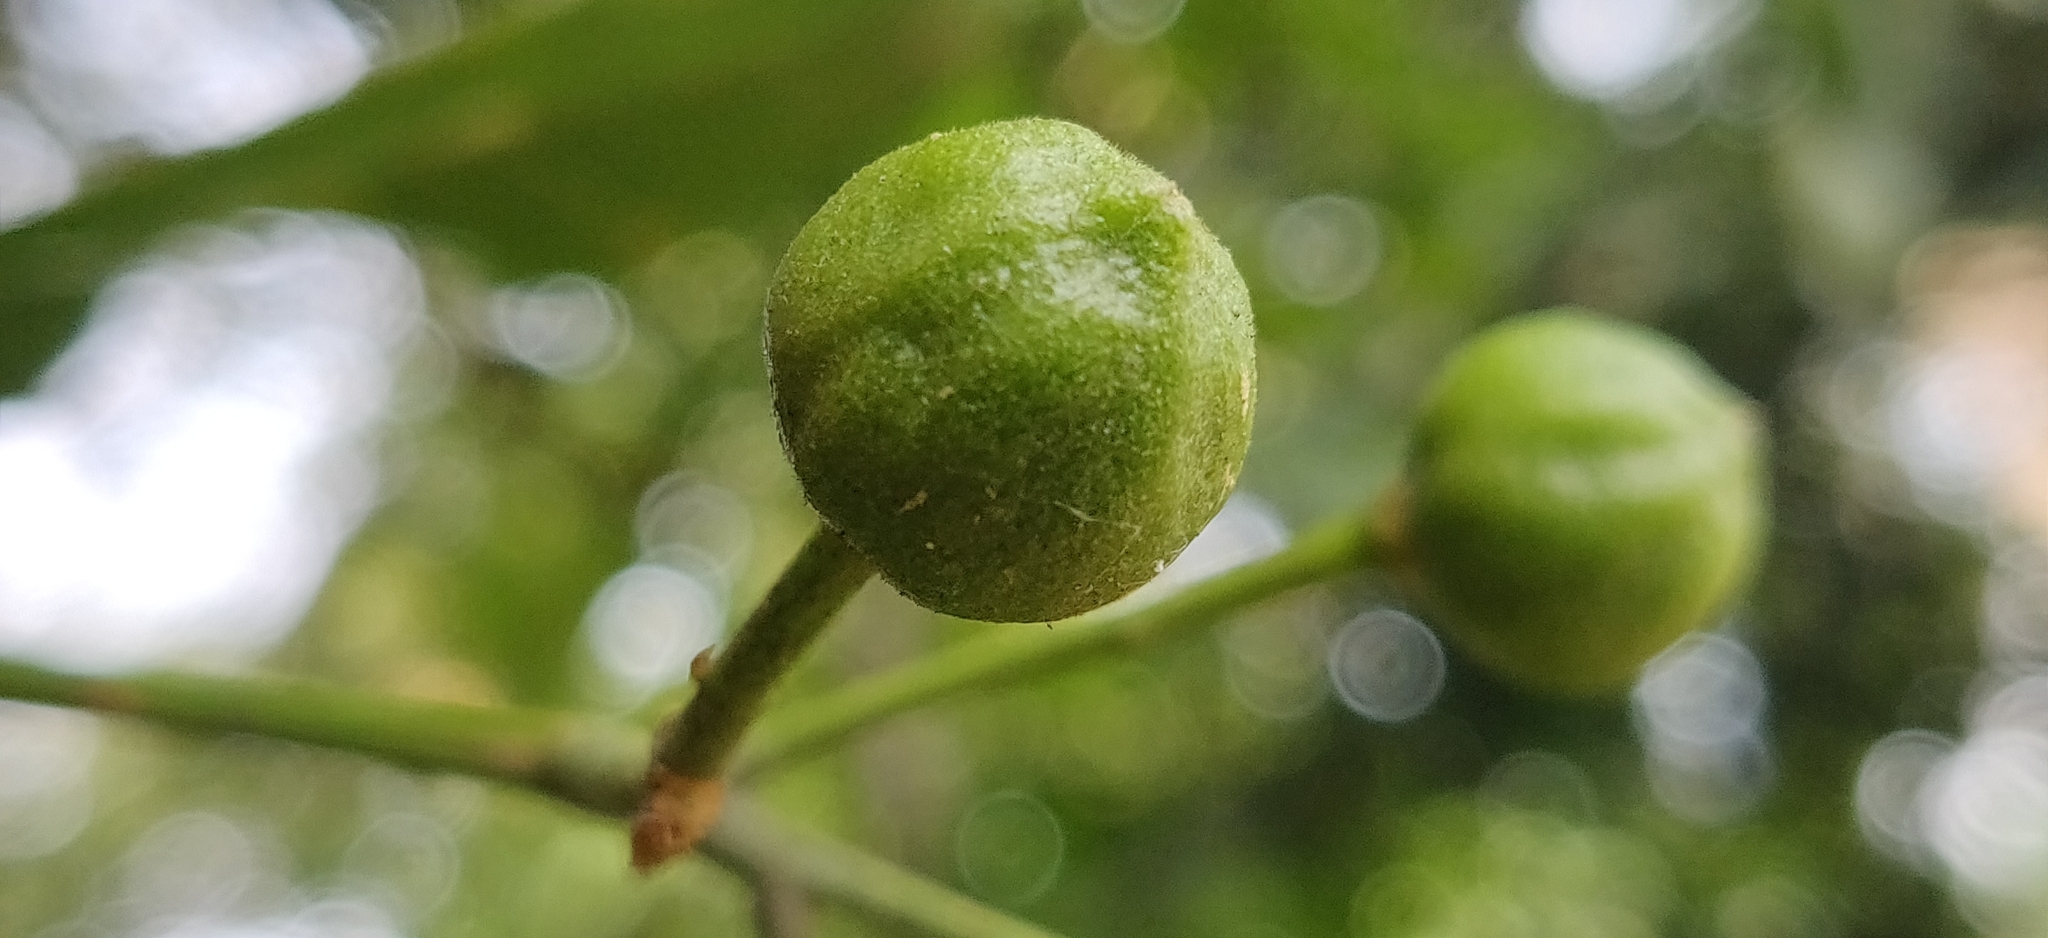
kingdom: Plantae
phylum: Tracheophyta
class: Magnoliopsida
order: Sapindales
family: Rutaceae
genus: Acronychia
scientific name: Acronychia pedunculata
